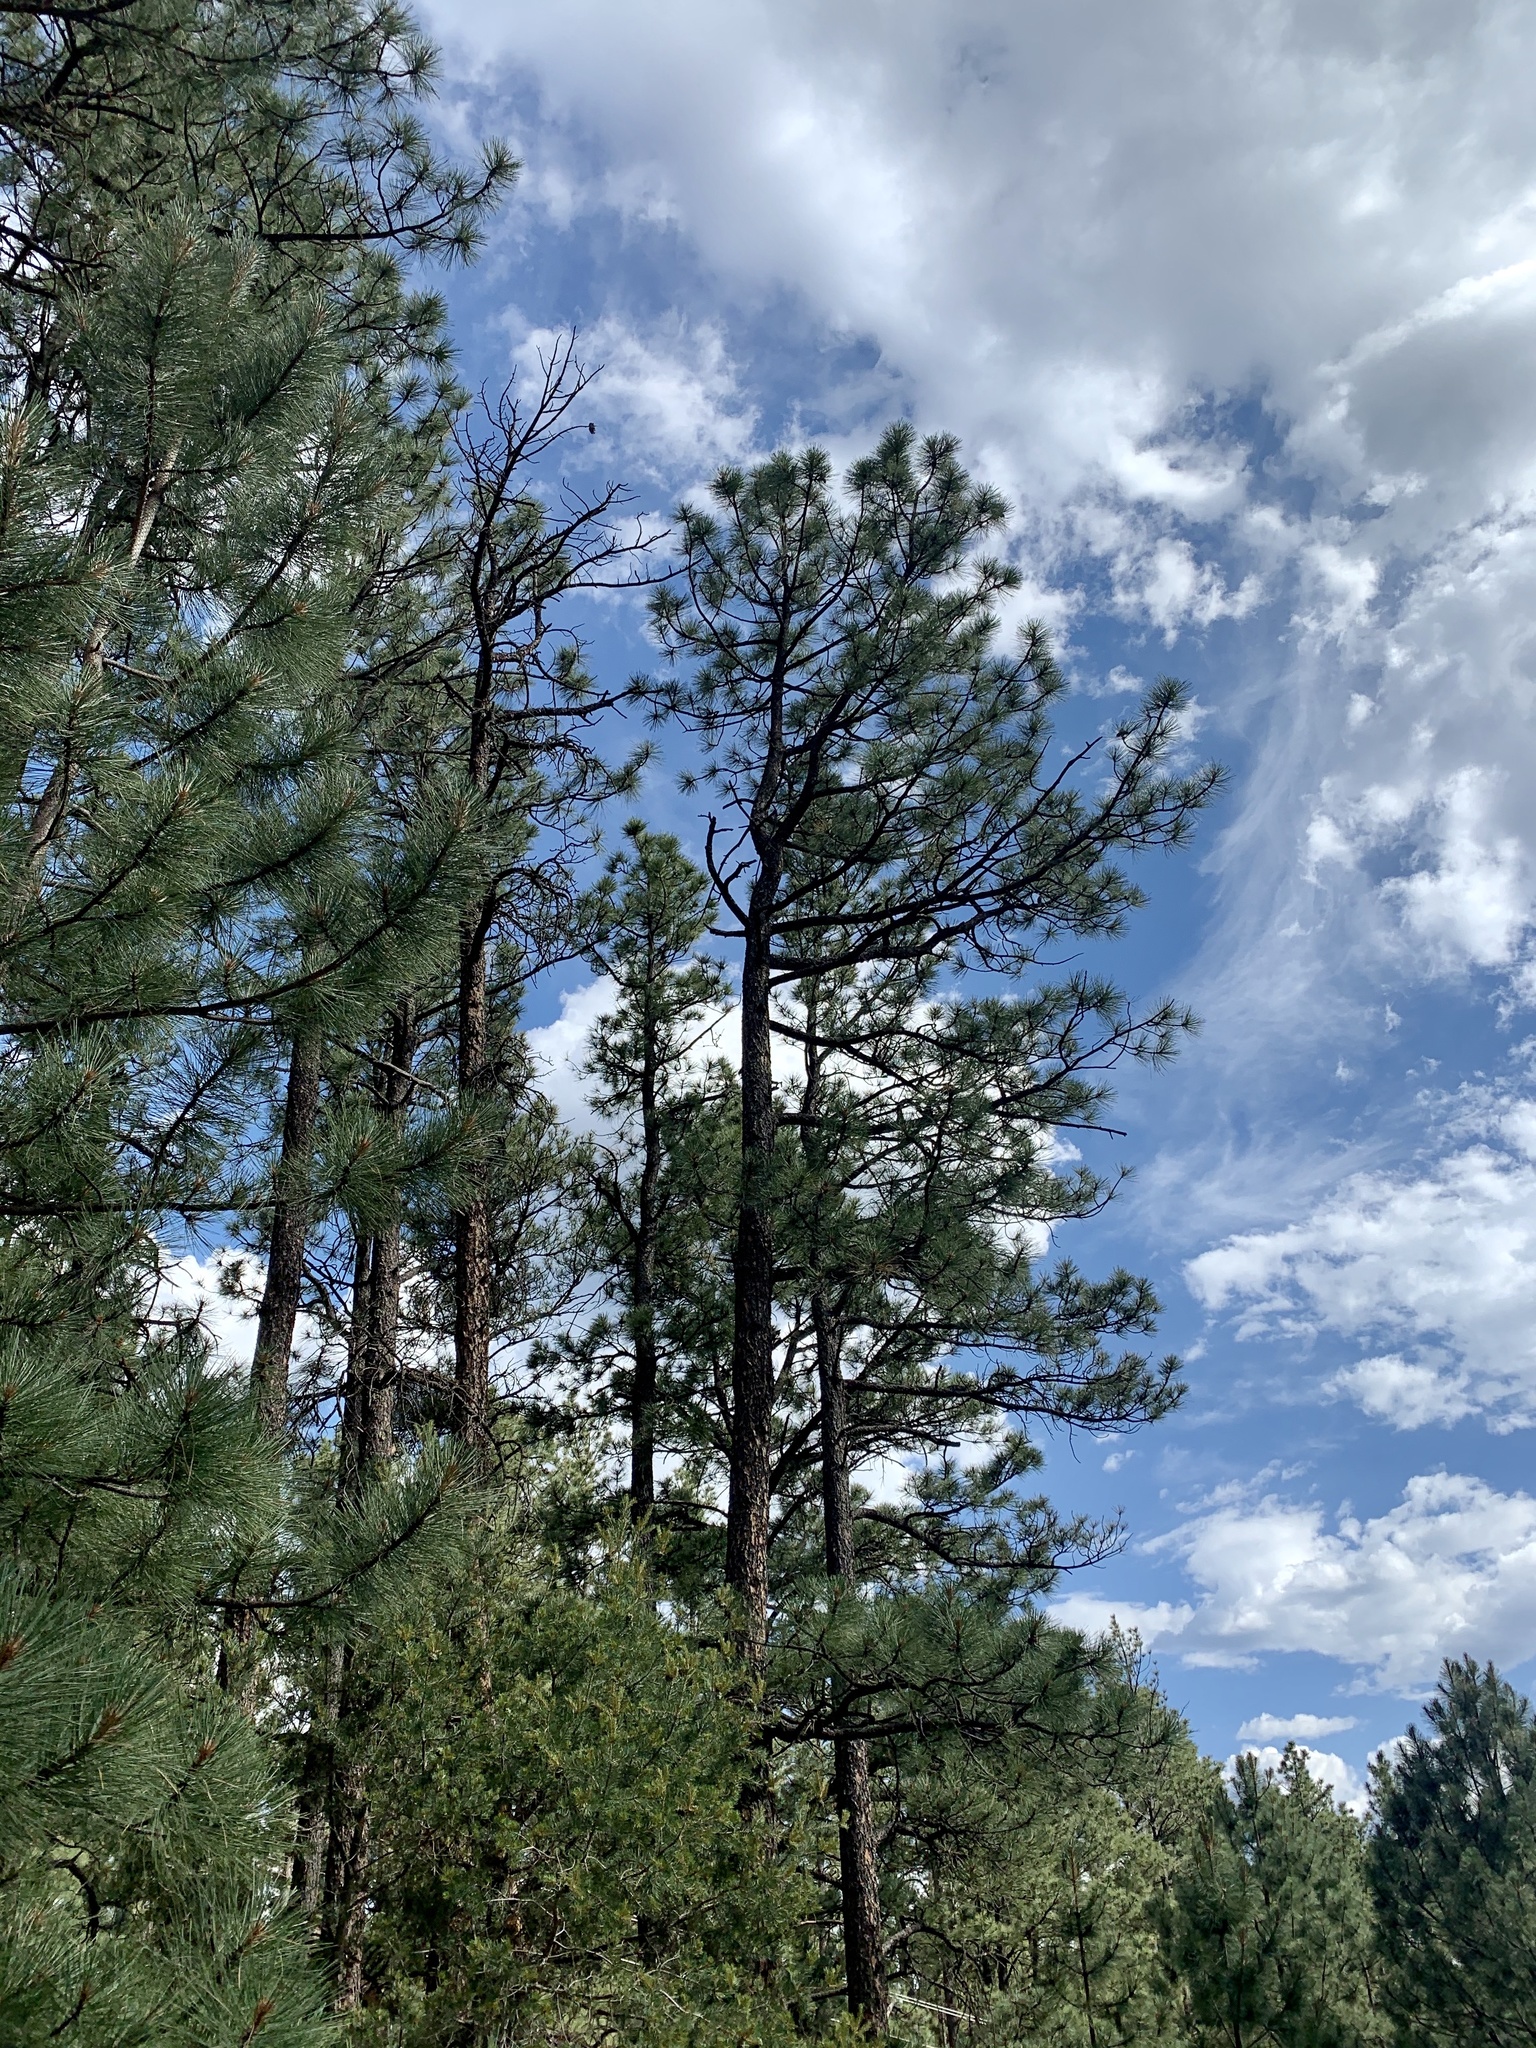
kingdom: Plantae
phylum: Tracheophyta
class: Pinopsida
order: Pinales
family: Pinaceae
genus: Pinus
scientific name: Pinus ponderosa
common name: Western yellow-pine
